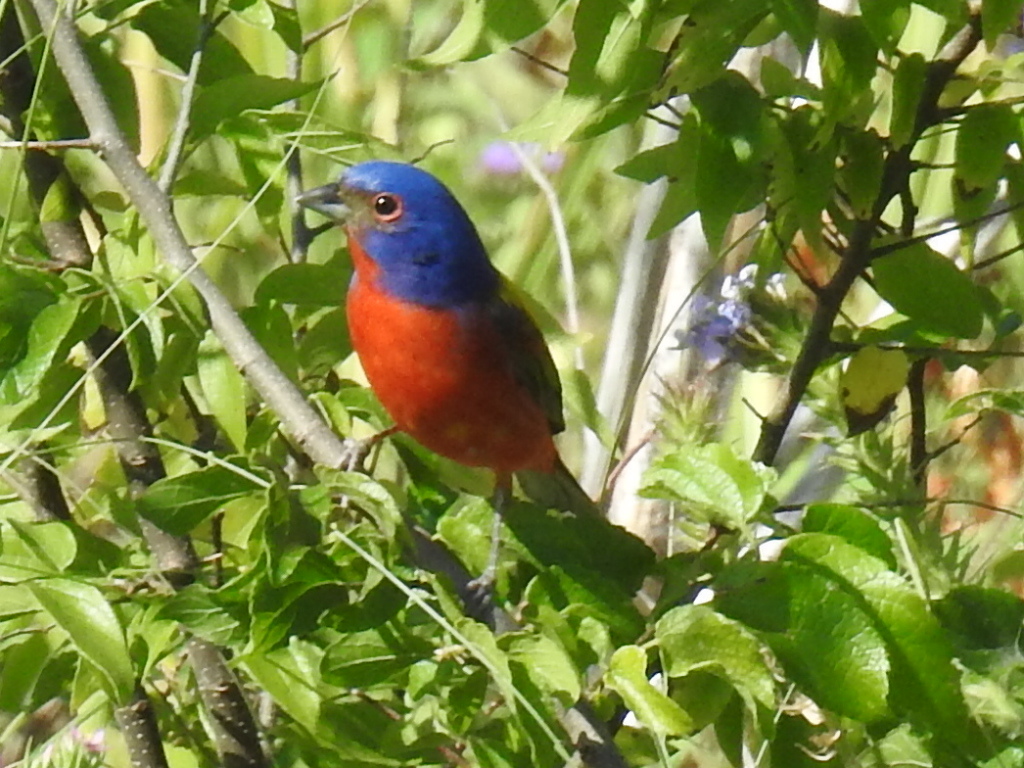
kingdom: Animalia
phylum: Chordata
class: Aves
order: Passeriformes
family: Cardinalidae
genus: Passerina
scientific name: Passerina ciris
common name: Painted bunting
